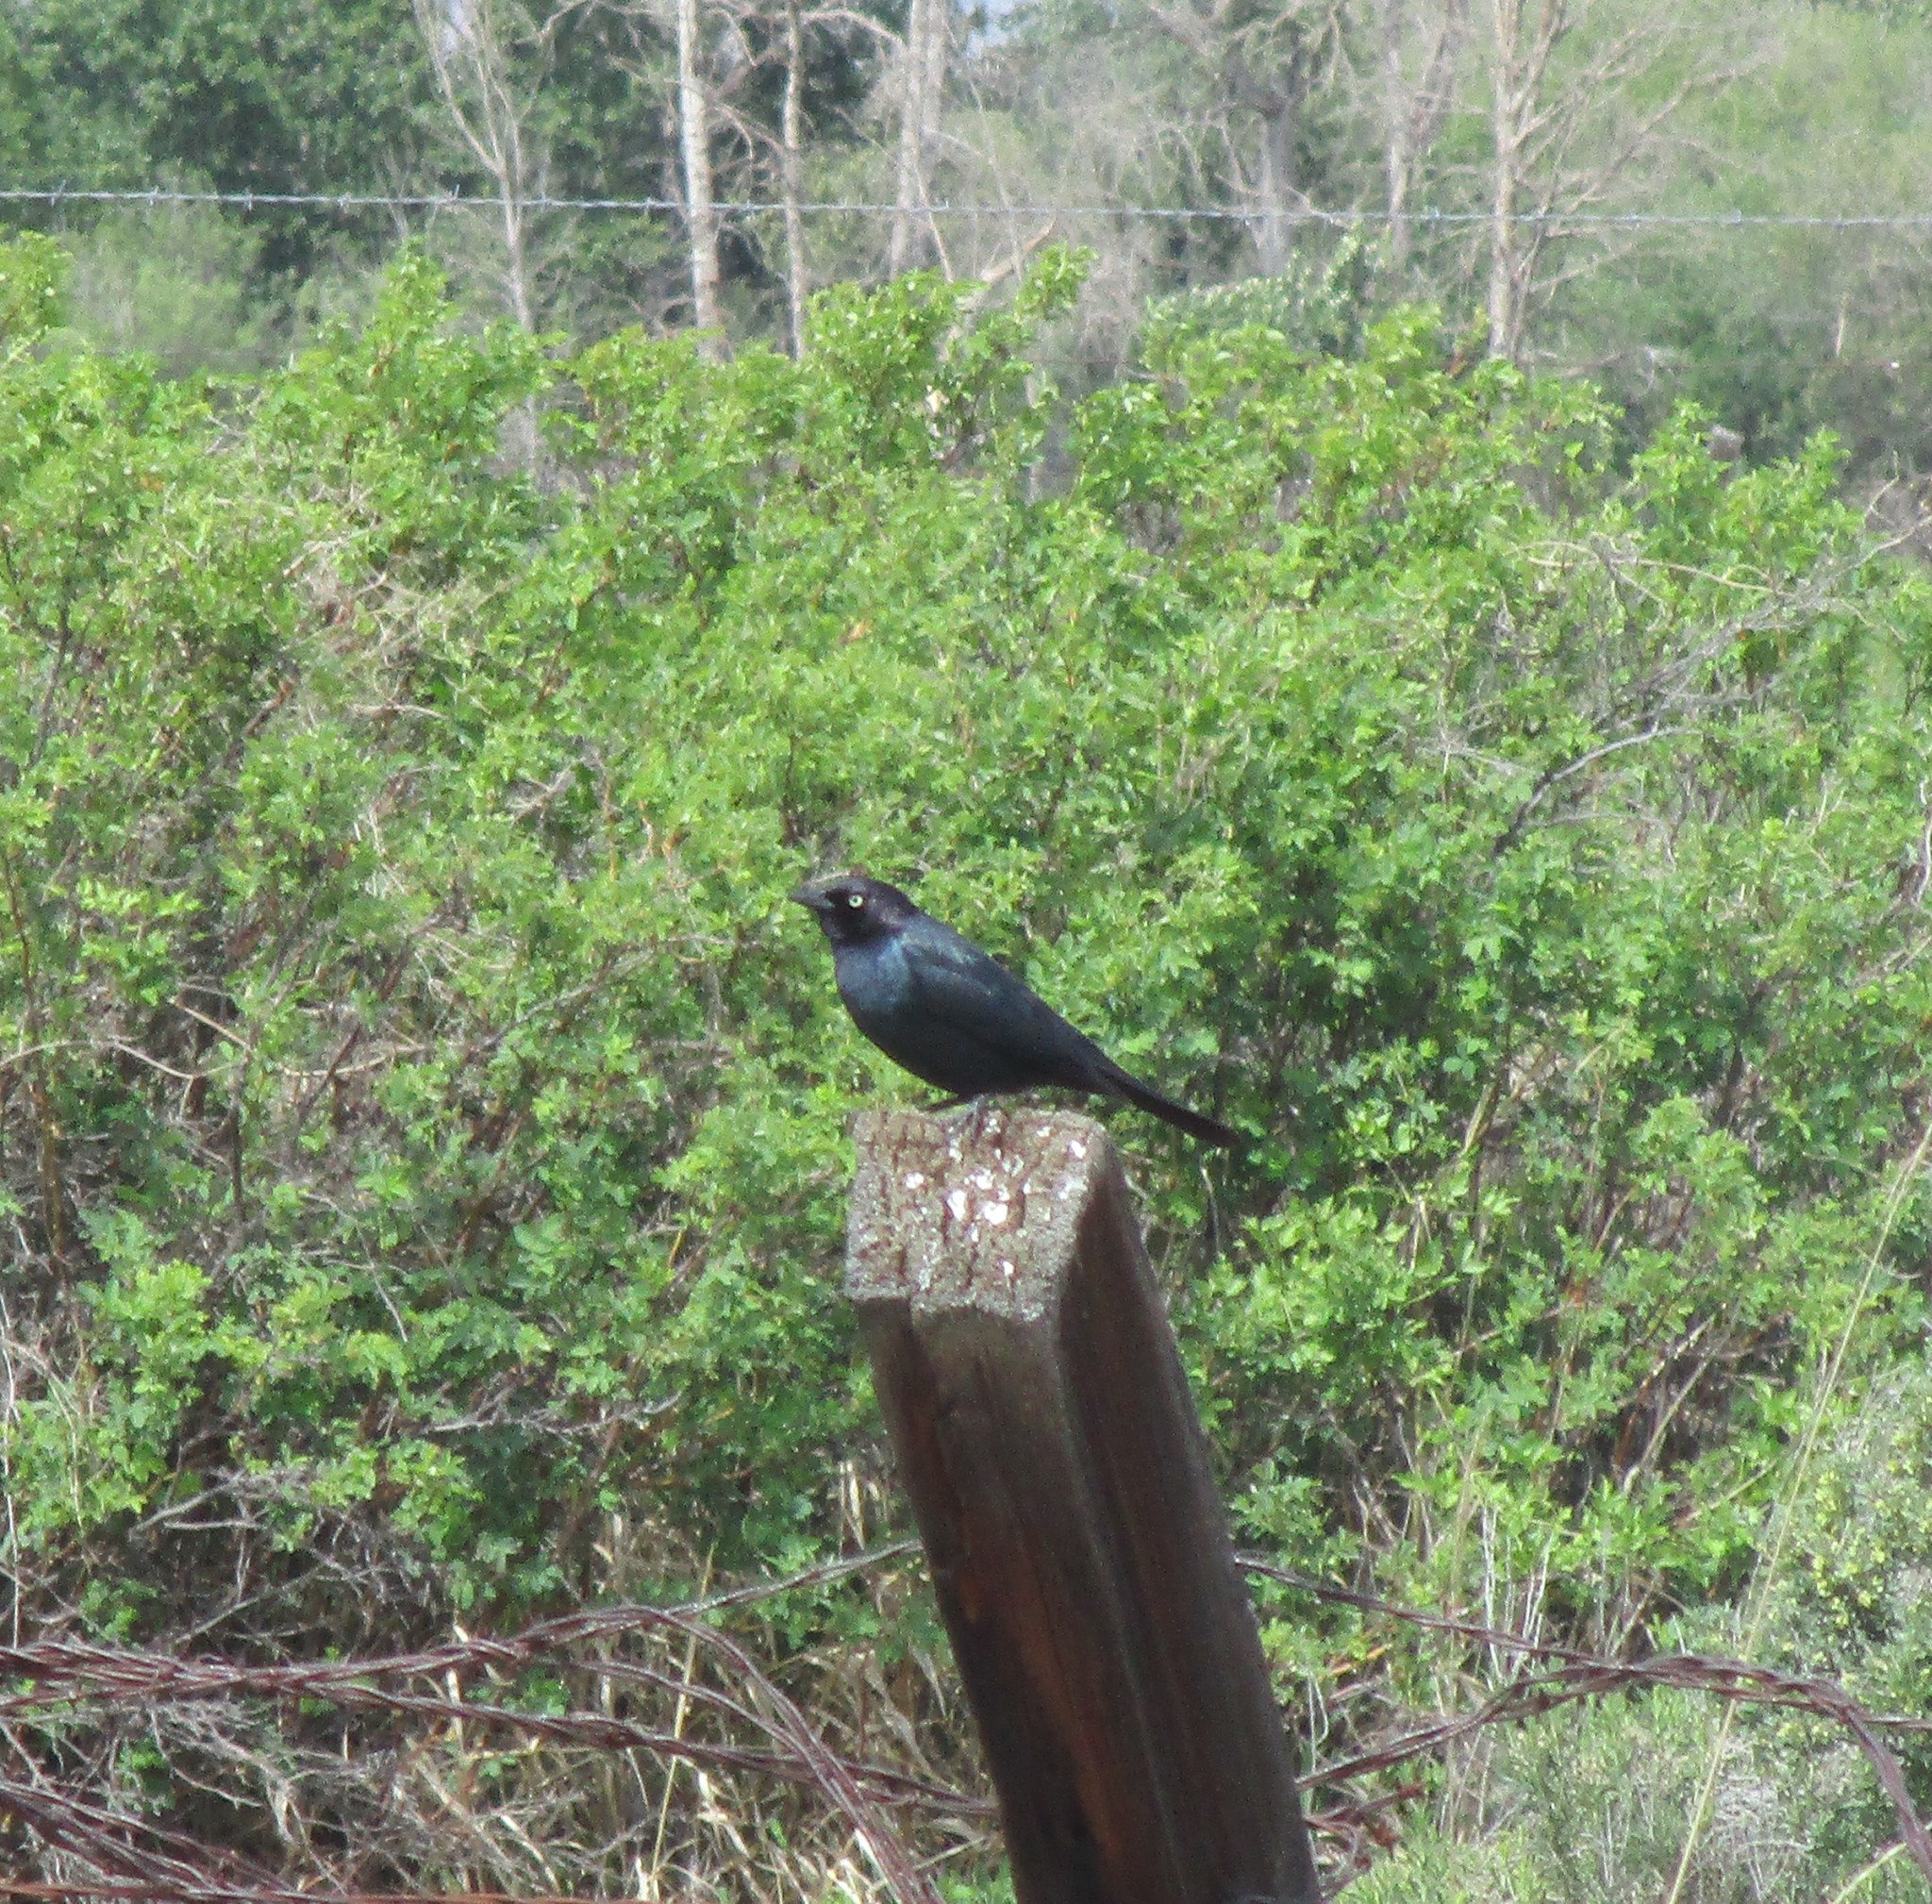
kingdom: Animalia
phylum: Chordata
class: Aves
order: Passeriformes
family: Icteridae
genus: Euphagus
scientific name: Euphagus cyanocephalus
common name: Brewer's blackbird
